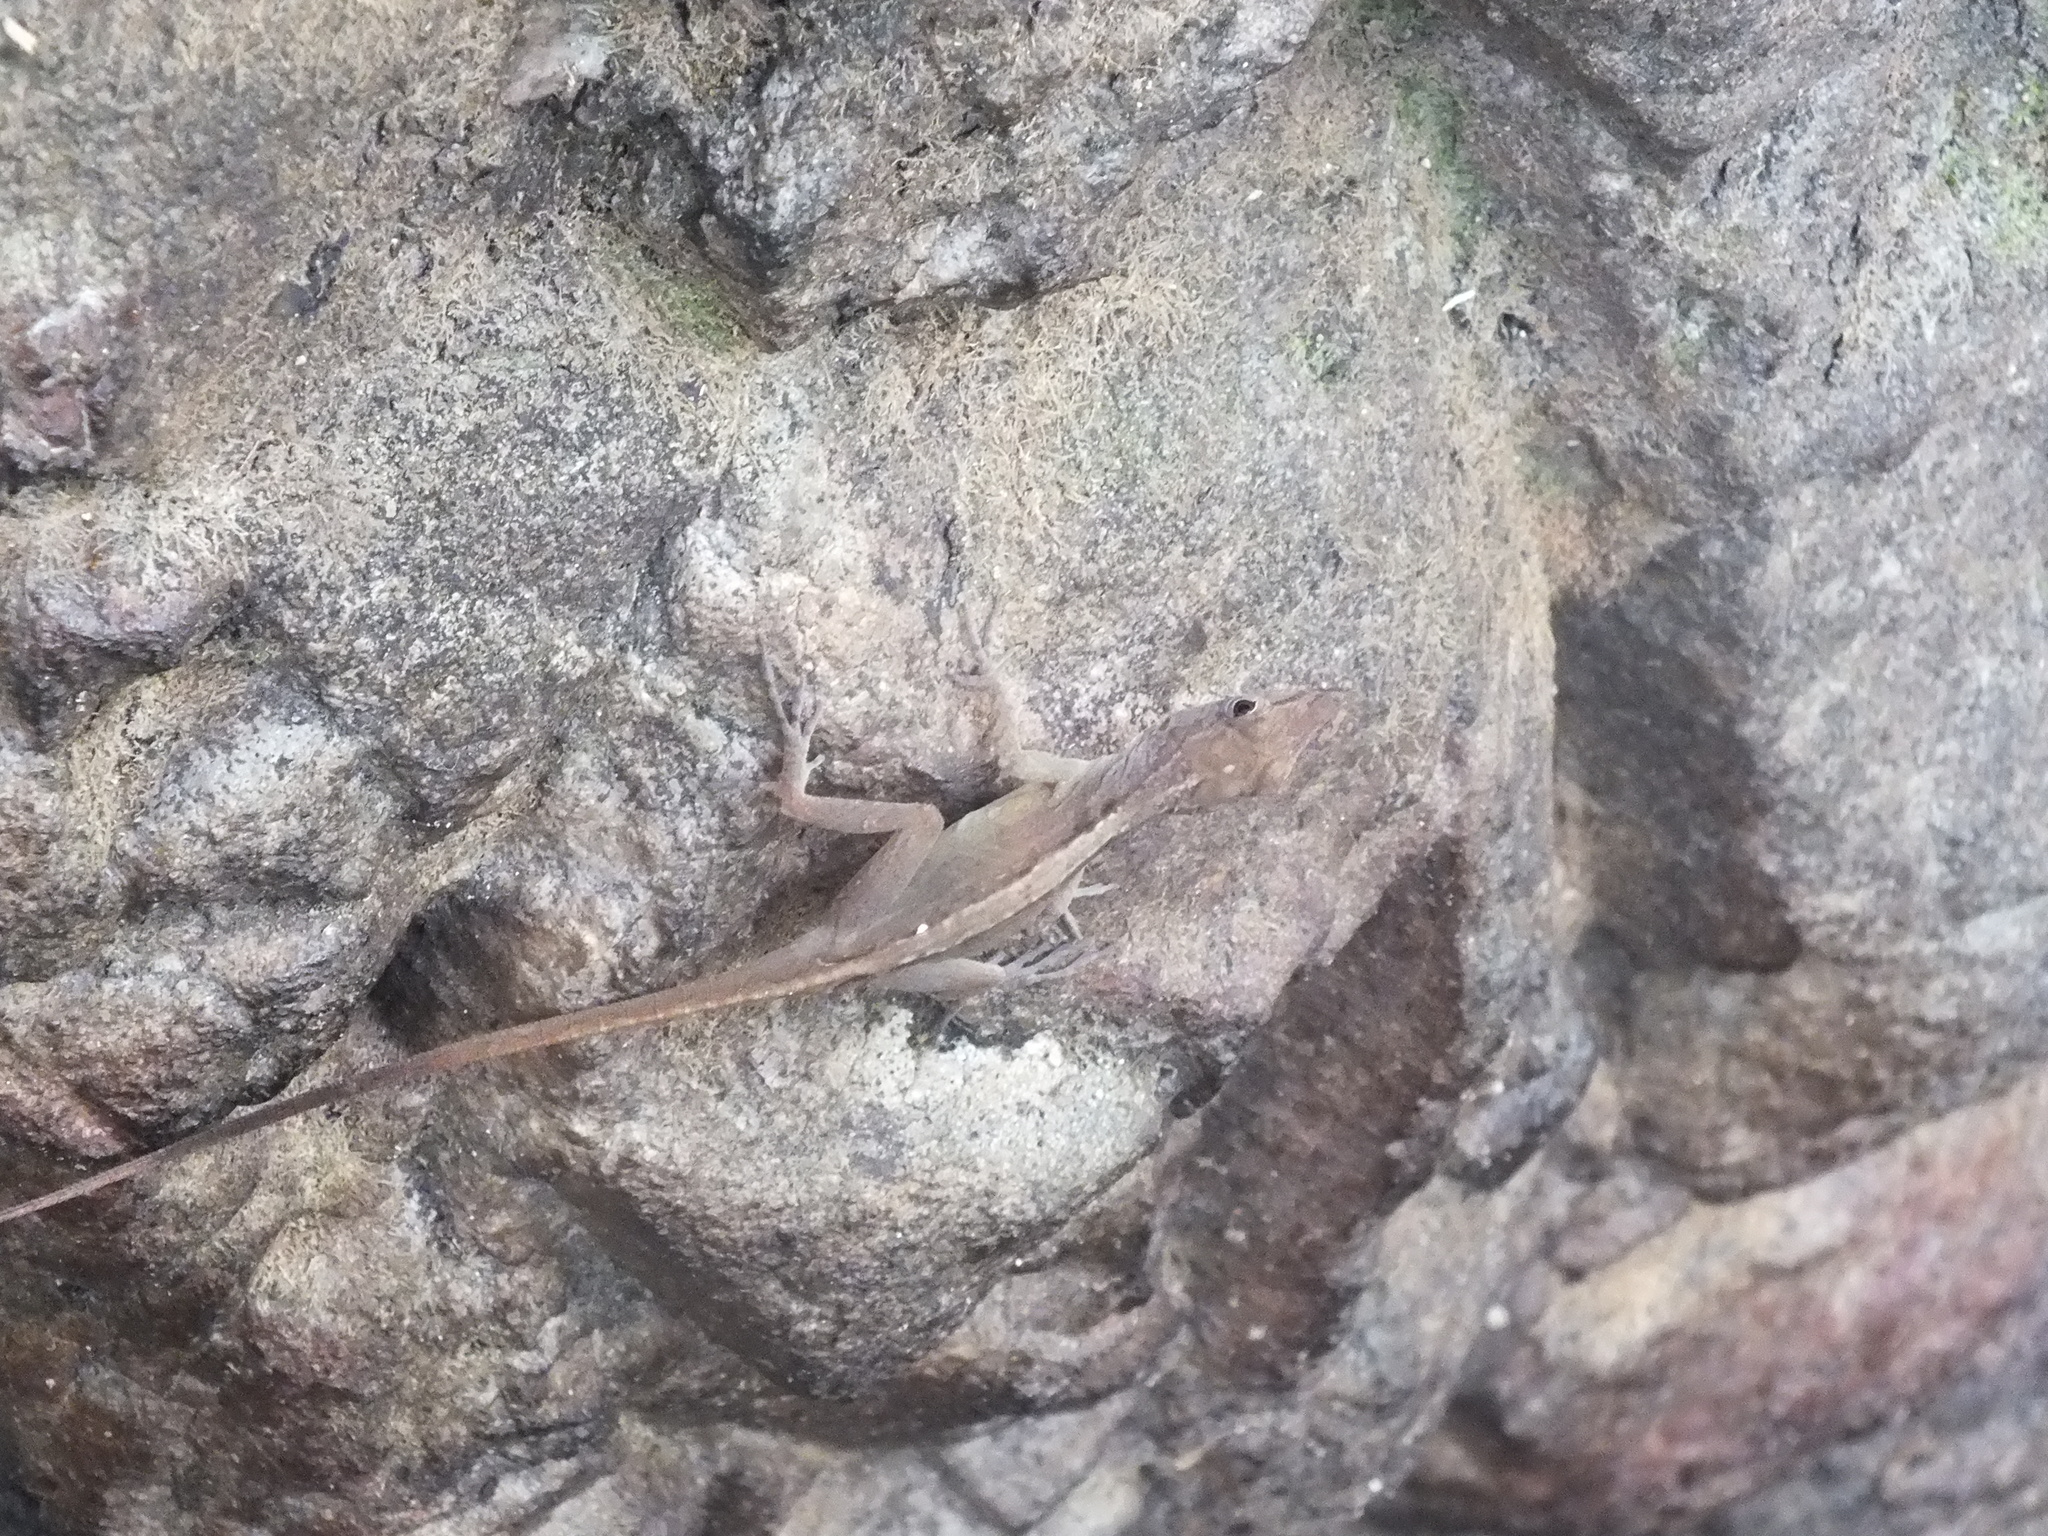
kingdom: Animalia
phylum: Chordata
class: Squamata
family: Dactyloidae
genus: Anolis
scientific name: Anolis grahami
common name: Graham's anole
